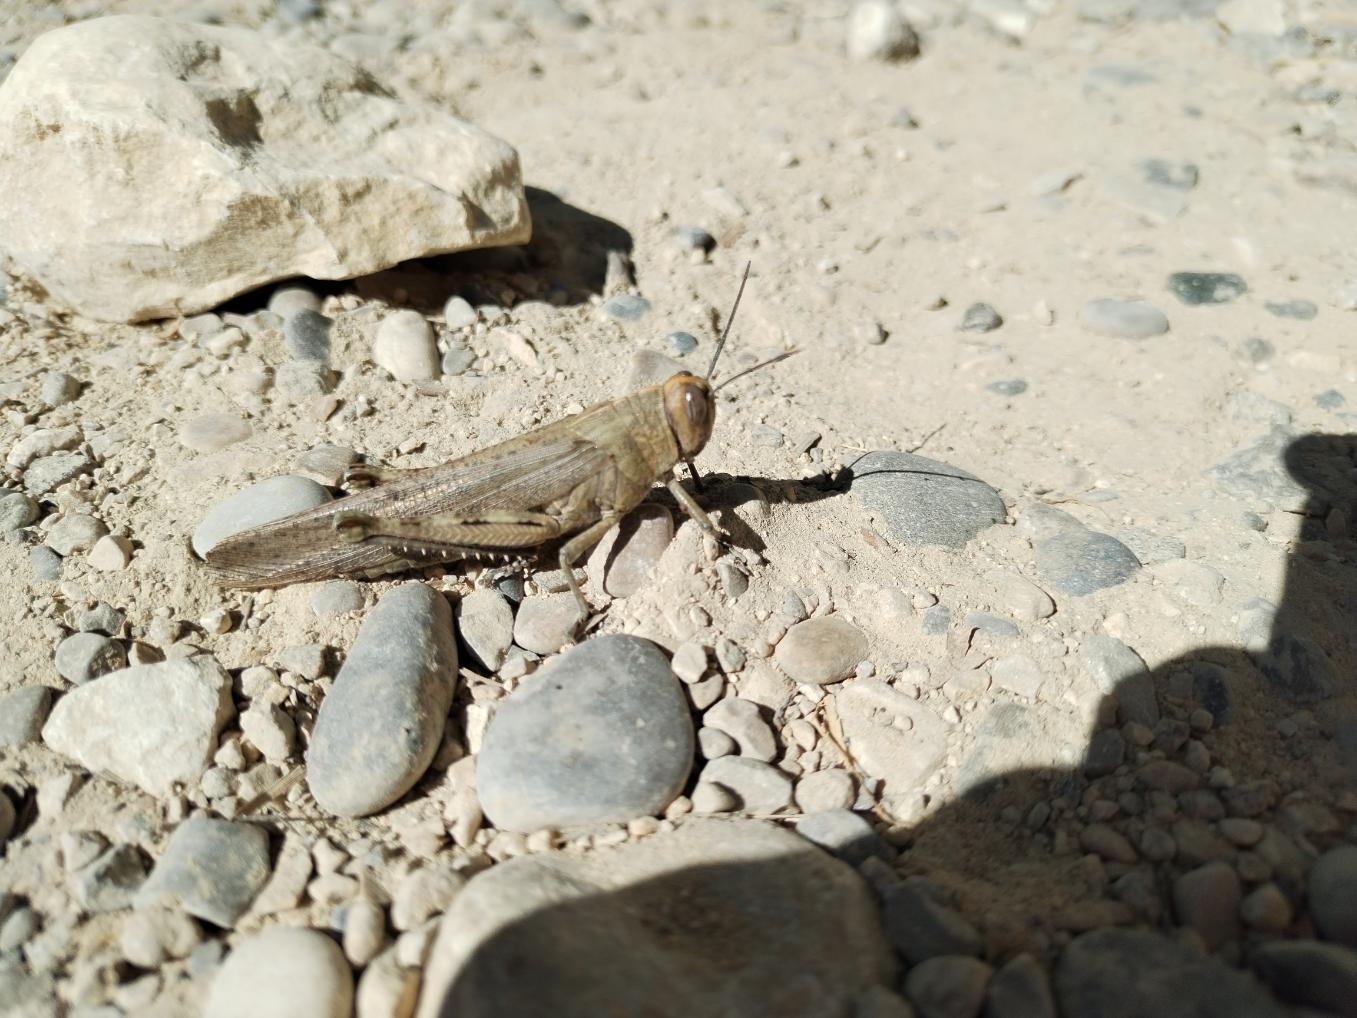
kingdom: Animalia
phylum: Arthropoda
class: Insecta
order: Orthoptera
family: Acrididae
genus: Anacridium
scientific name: Anacridium aegyptium
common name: Egyptian grasshopper
